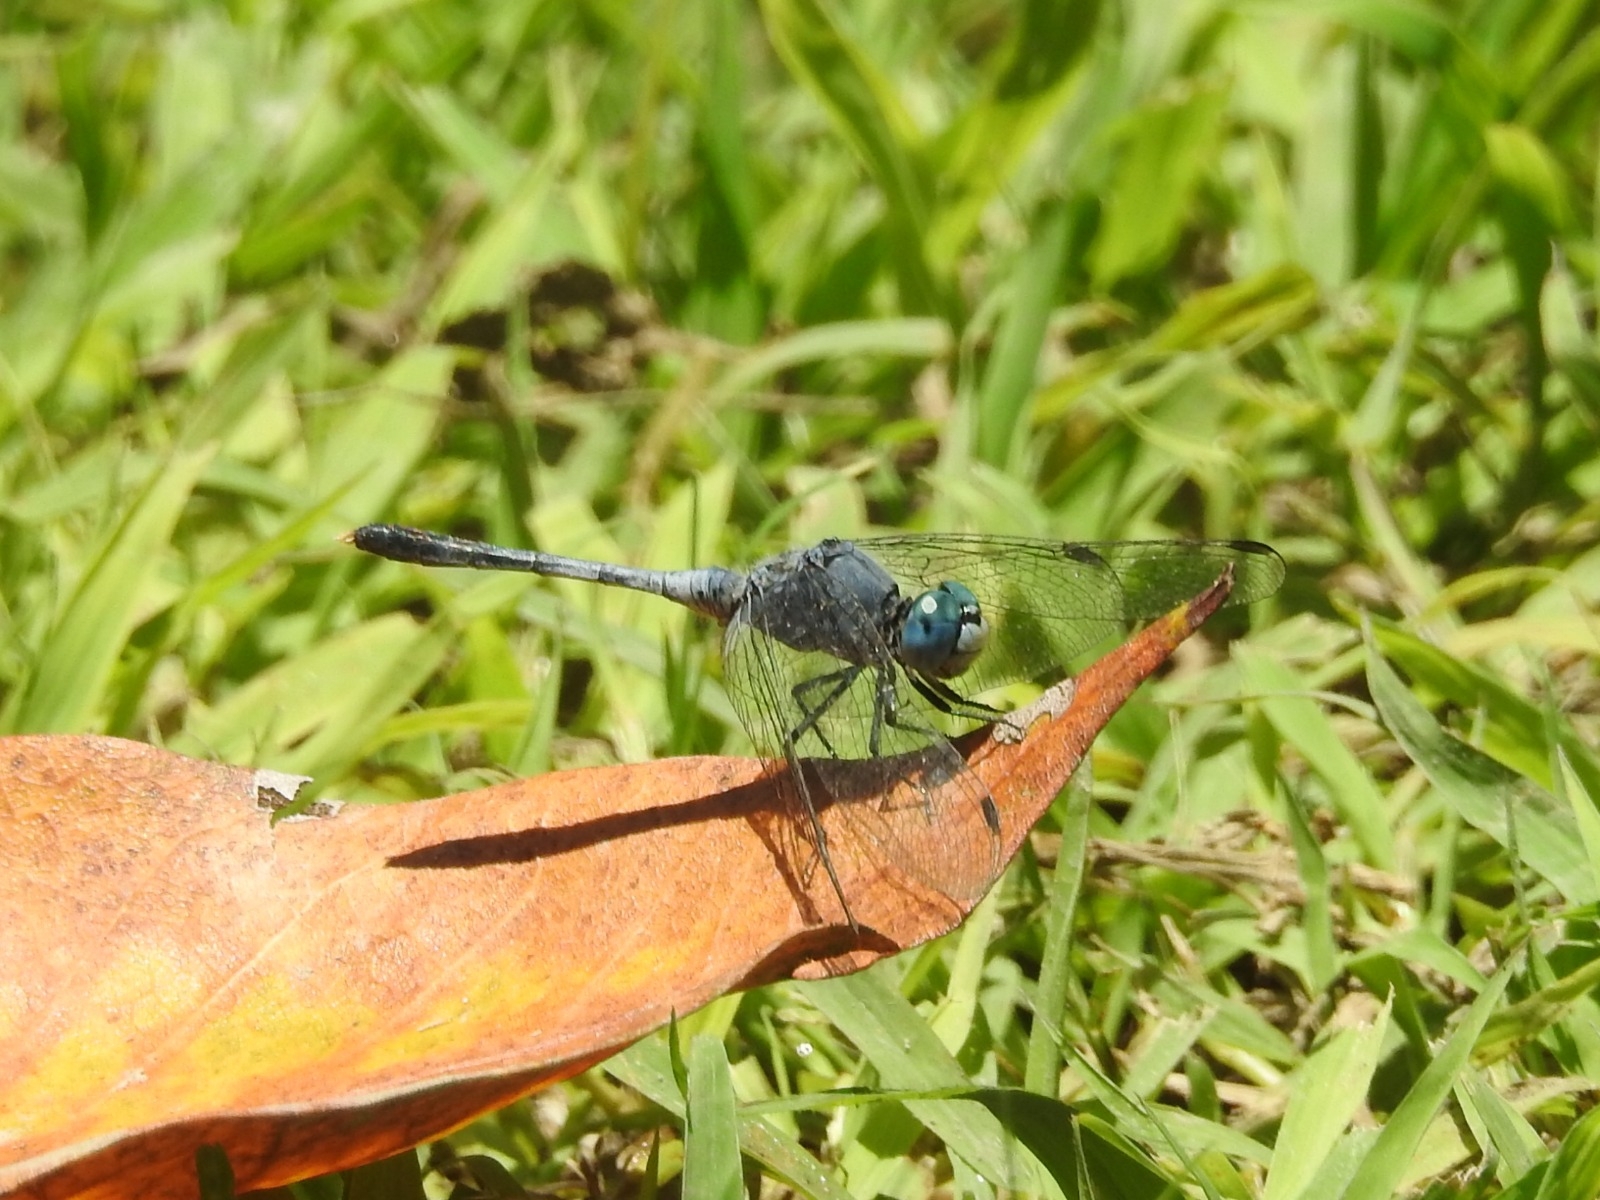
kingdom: Animalia
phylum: Arthropoda
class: Insecta
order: Odonata
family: Libellulidae
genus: Diplacodes
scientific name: Diplacodes trivialis
